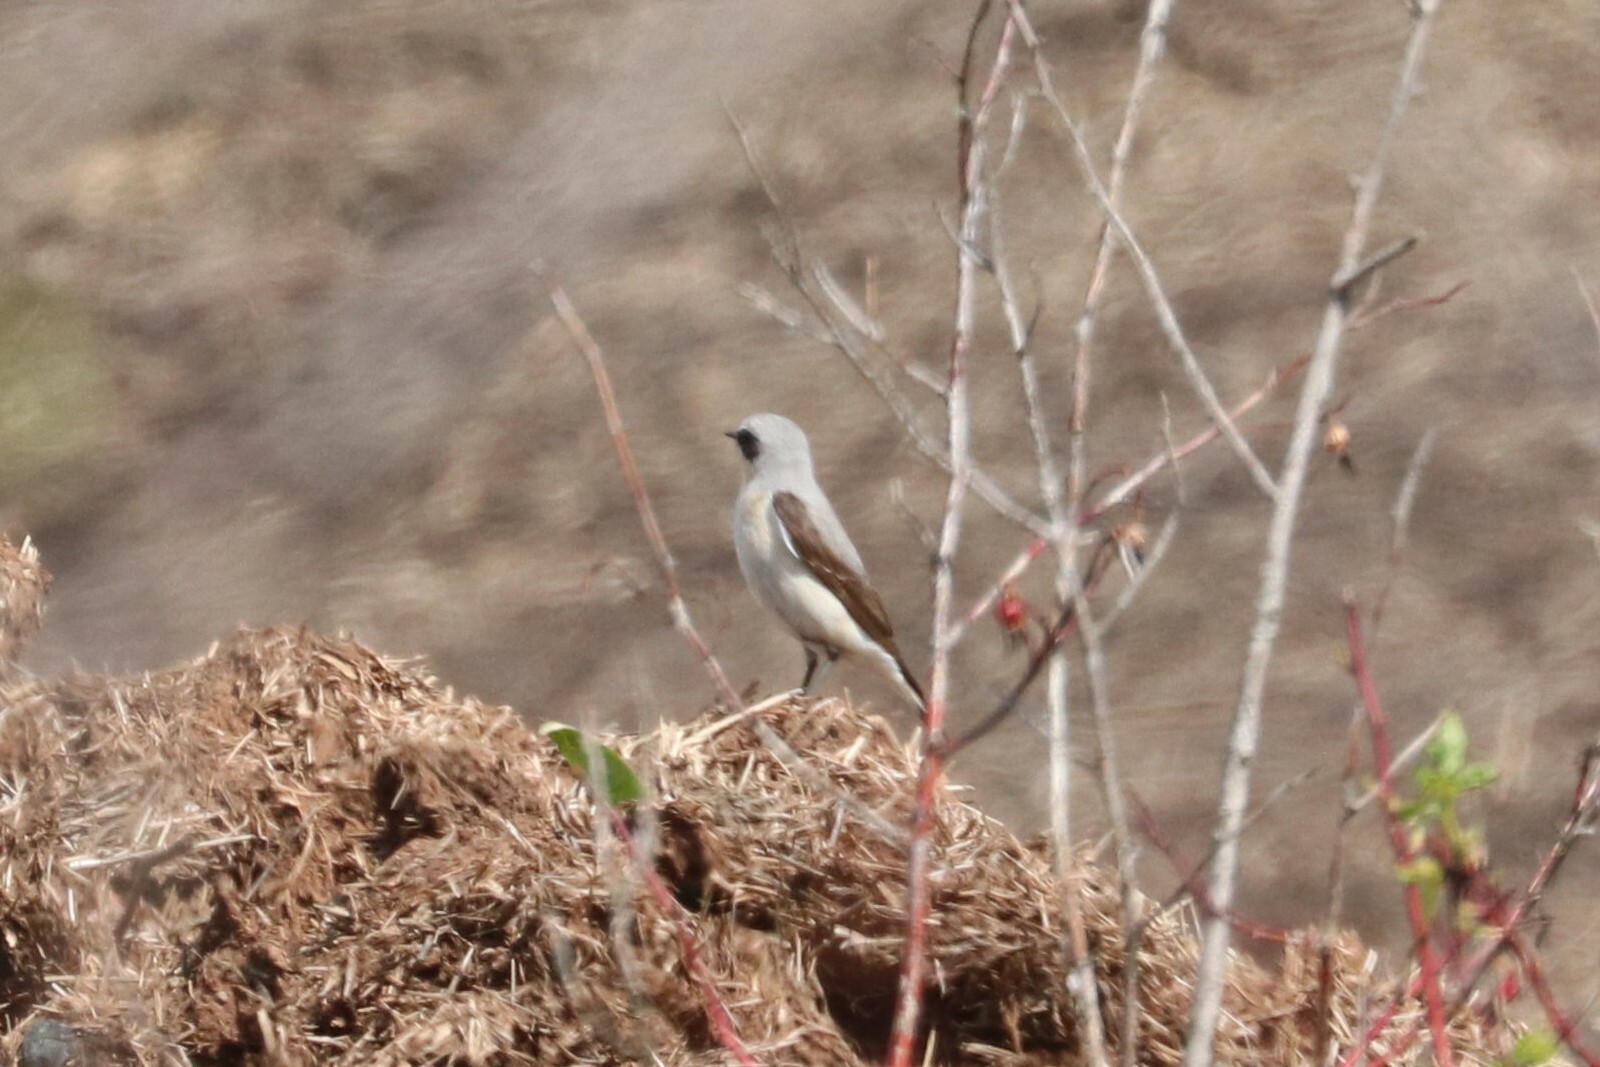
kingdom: Animalia
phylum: Chordata
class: Aves
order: Passeriformes
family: Muscicapidae
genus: Oenanthe
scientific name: Oenanthe oenanthe
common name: Northern wheatear
